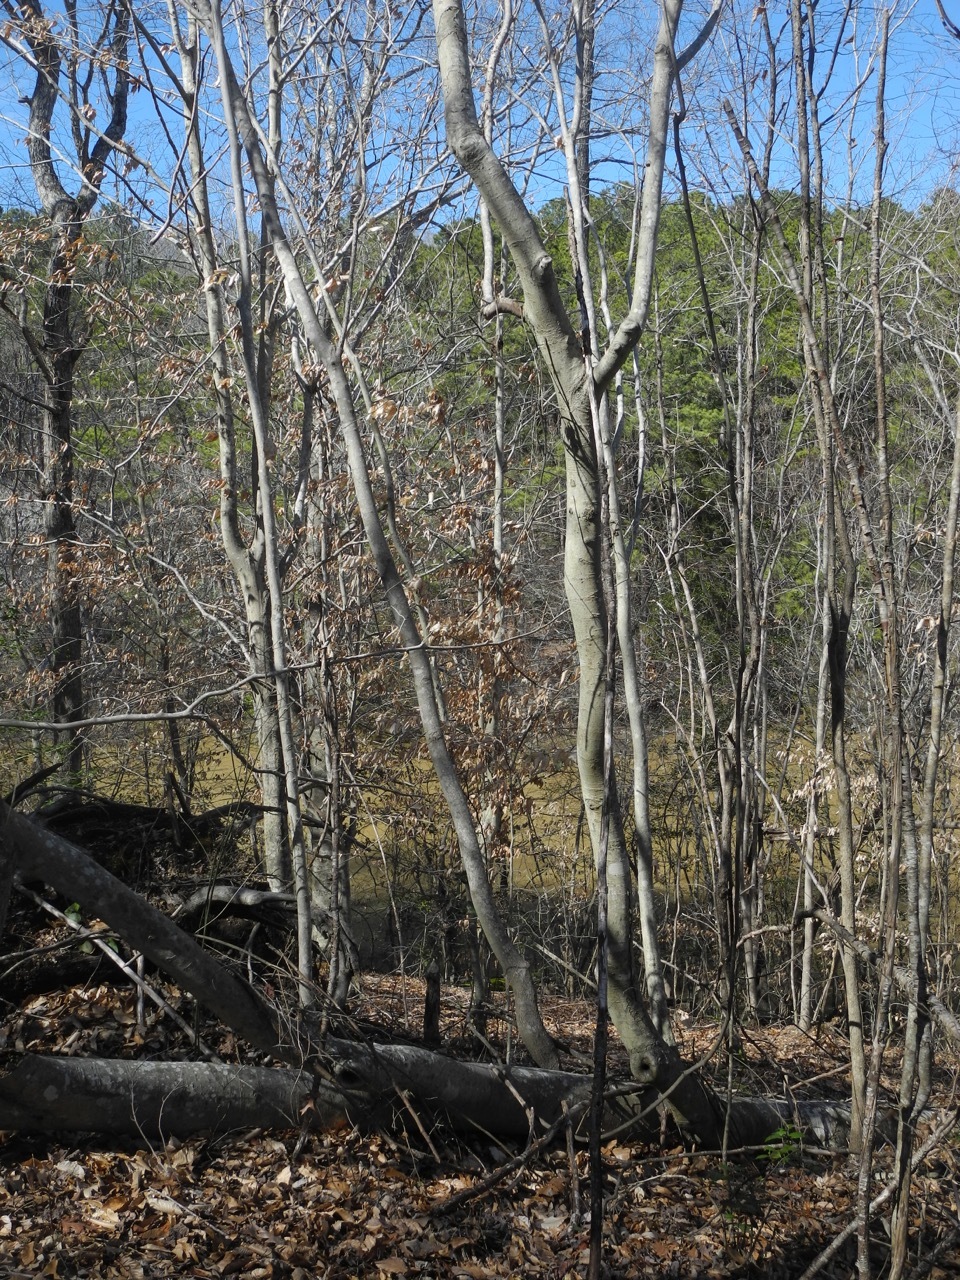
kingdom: Plantae
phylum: Tracheophyta
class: Magnoliopsida
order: Fagales
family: Fagaceae
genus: Fagus
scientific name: Fagus grandifolia
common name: American beech
